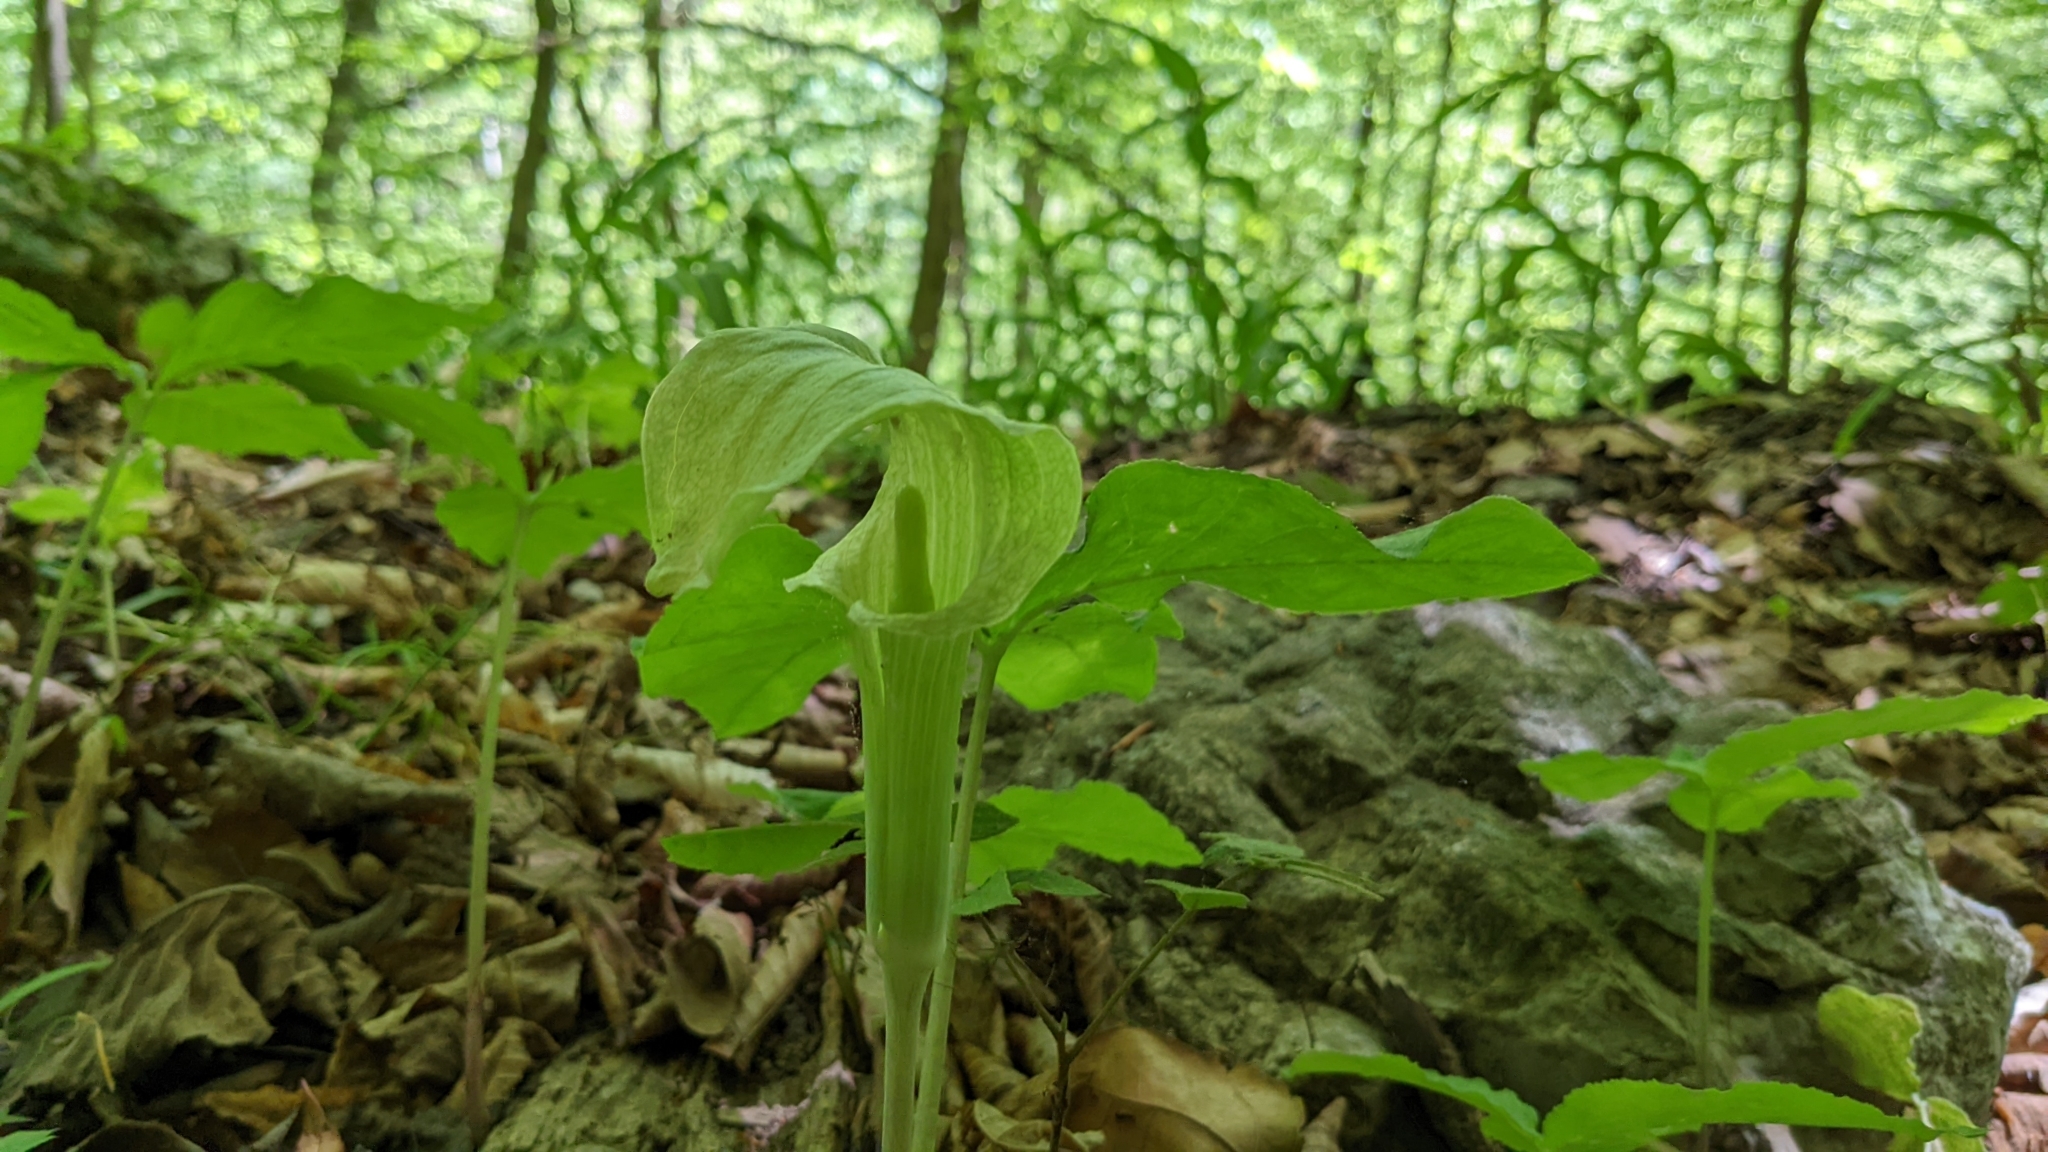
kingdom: Plantae
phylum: Tracheophyta
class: Liliopsida
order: Alismatales
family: Araceae
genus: Arisaema
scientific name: Arisaema triphyllum
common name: Jack-in-the-pulpit
